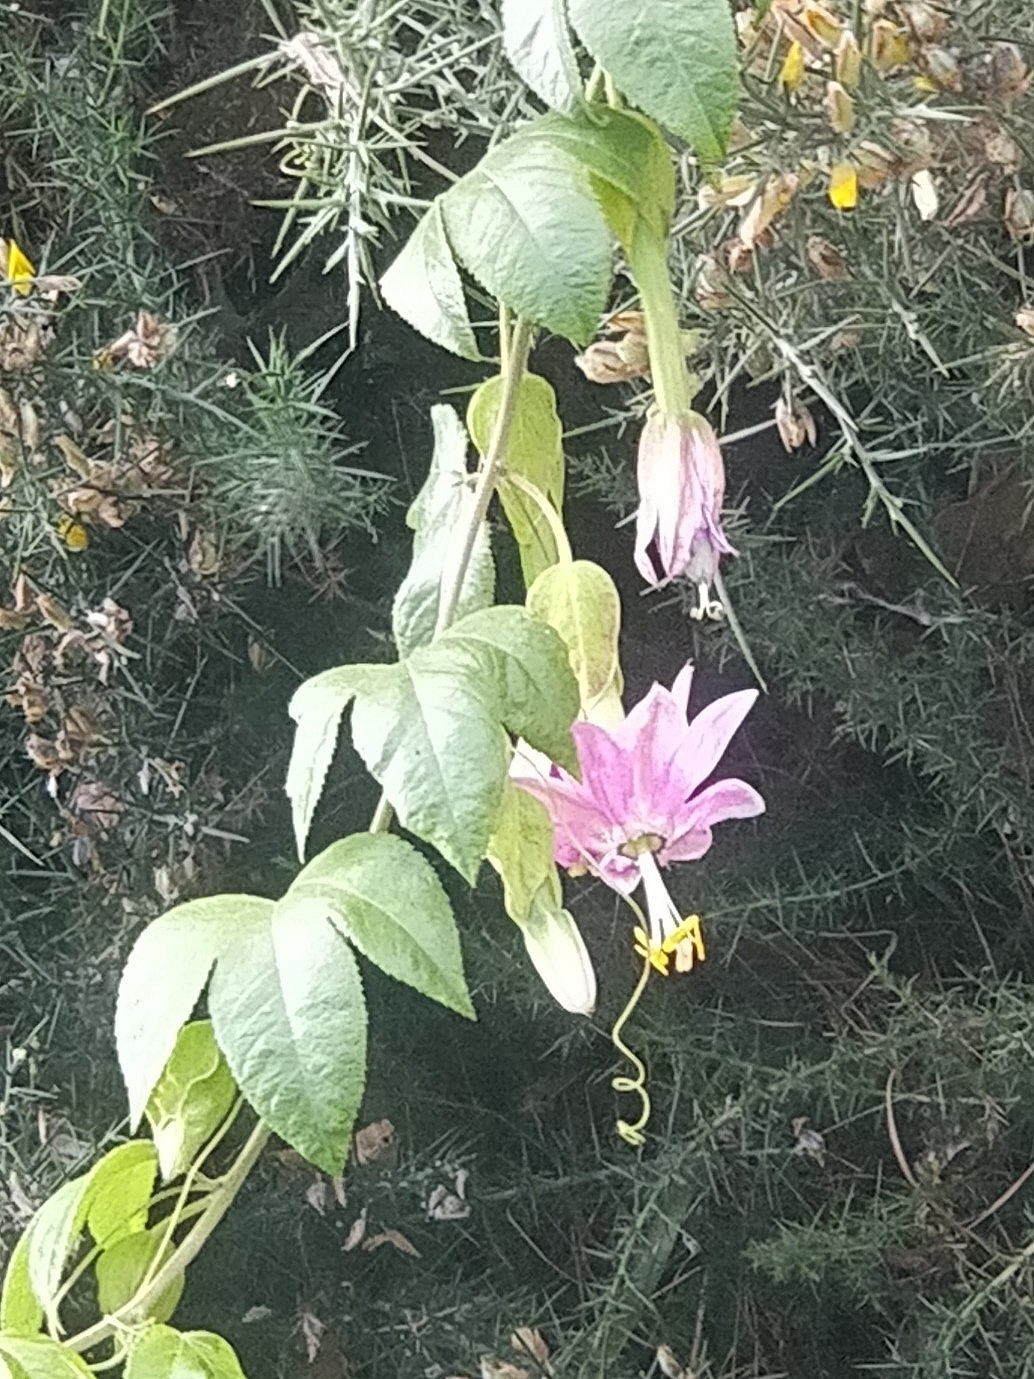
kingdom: Plantae
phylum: Tracheophyta
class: Magnoliopsida
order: Malpighiales
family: Passifloraceae
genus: Passiflora
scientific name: Passiflora tarminiana
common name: Banana poka
